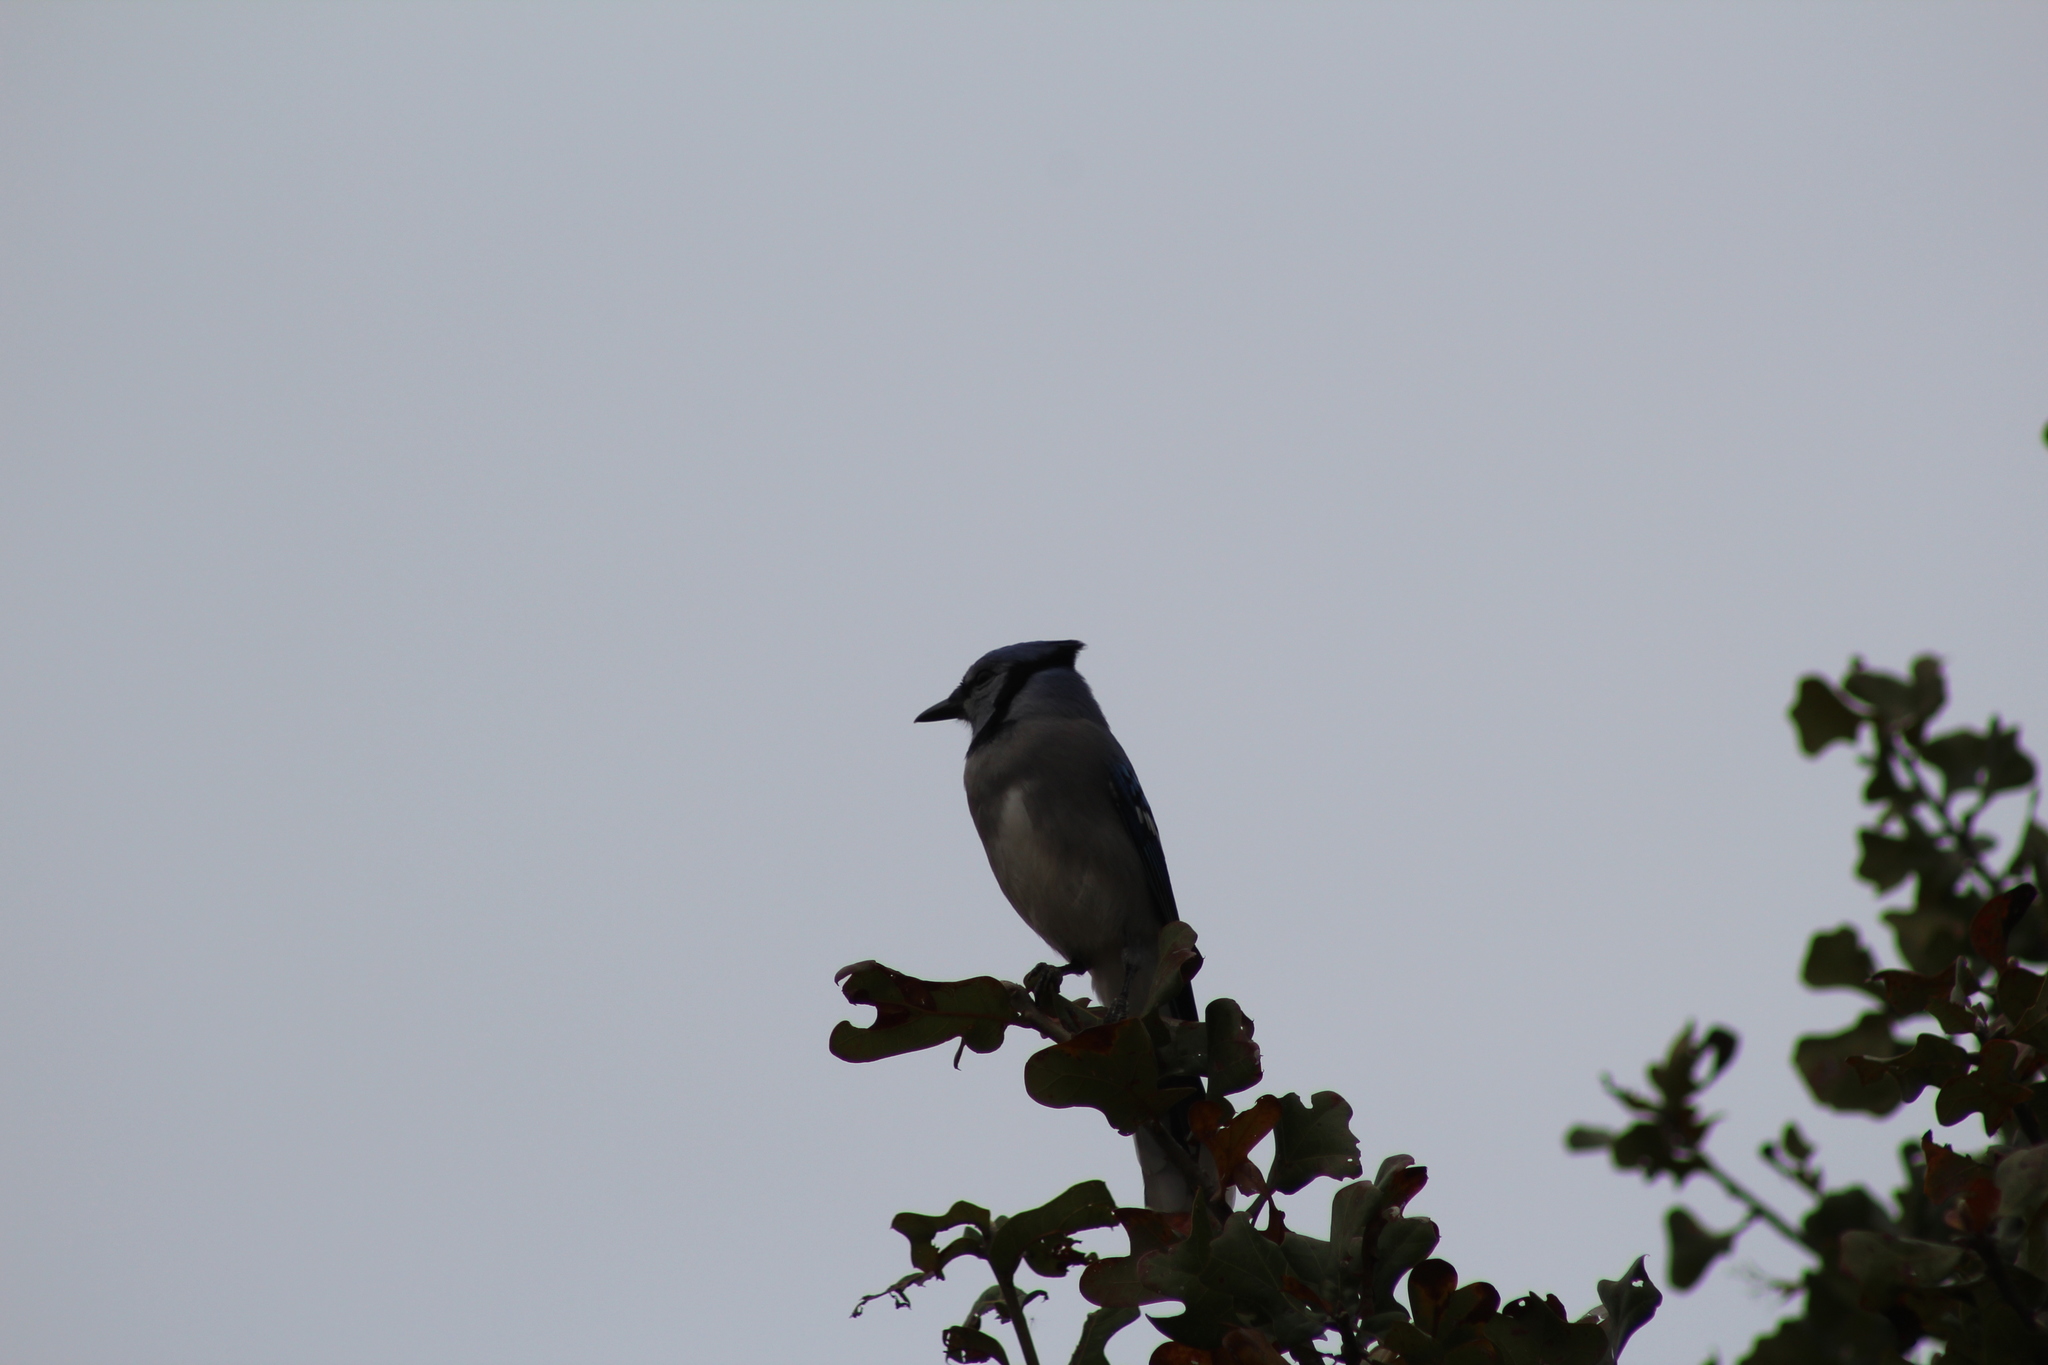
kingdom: Animalia
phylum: Chordata
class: Aves
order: Passeriformes
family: Corvidae
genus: Cyanocitta
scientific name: Cyanocitta cristata
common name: Blue jay
